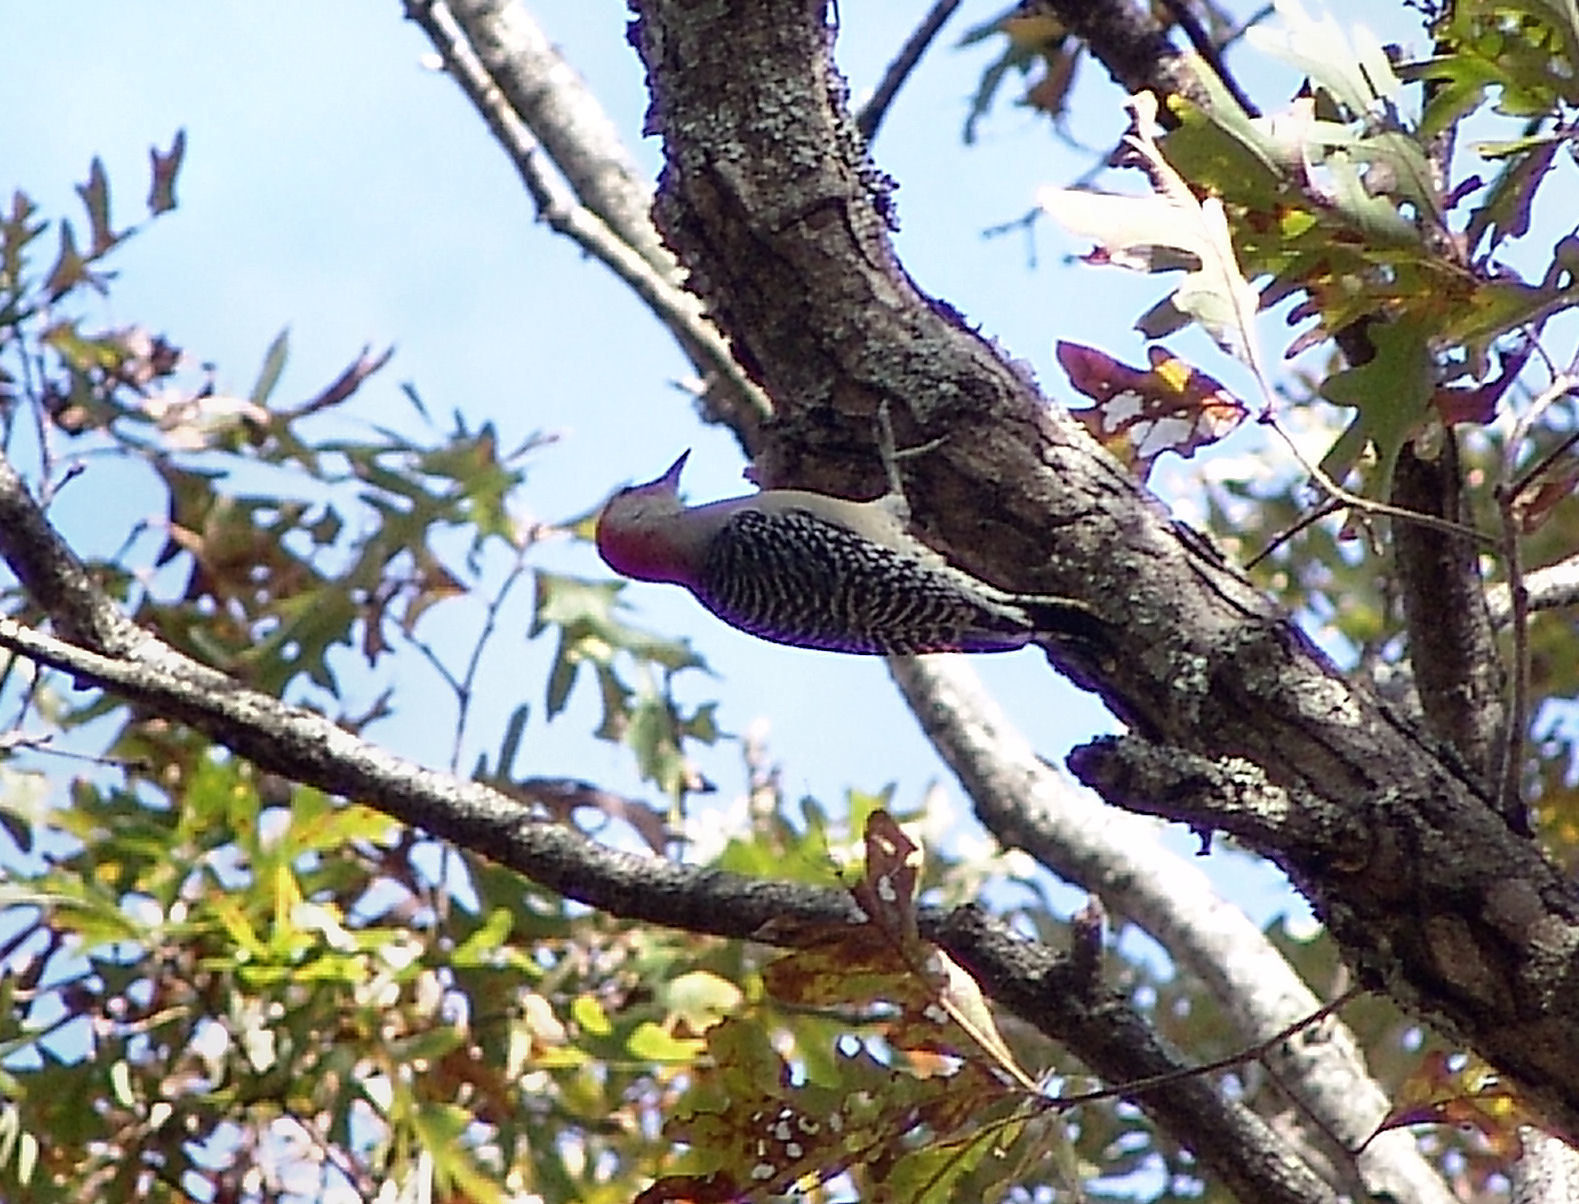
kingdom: Animalia
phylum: Chordata
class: Aves
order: Piciformes
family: Picidae
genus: Melanerpes
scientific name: Melanerpes carolinus
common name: Red-bellied woodpecker
